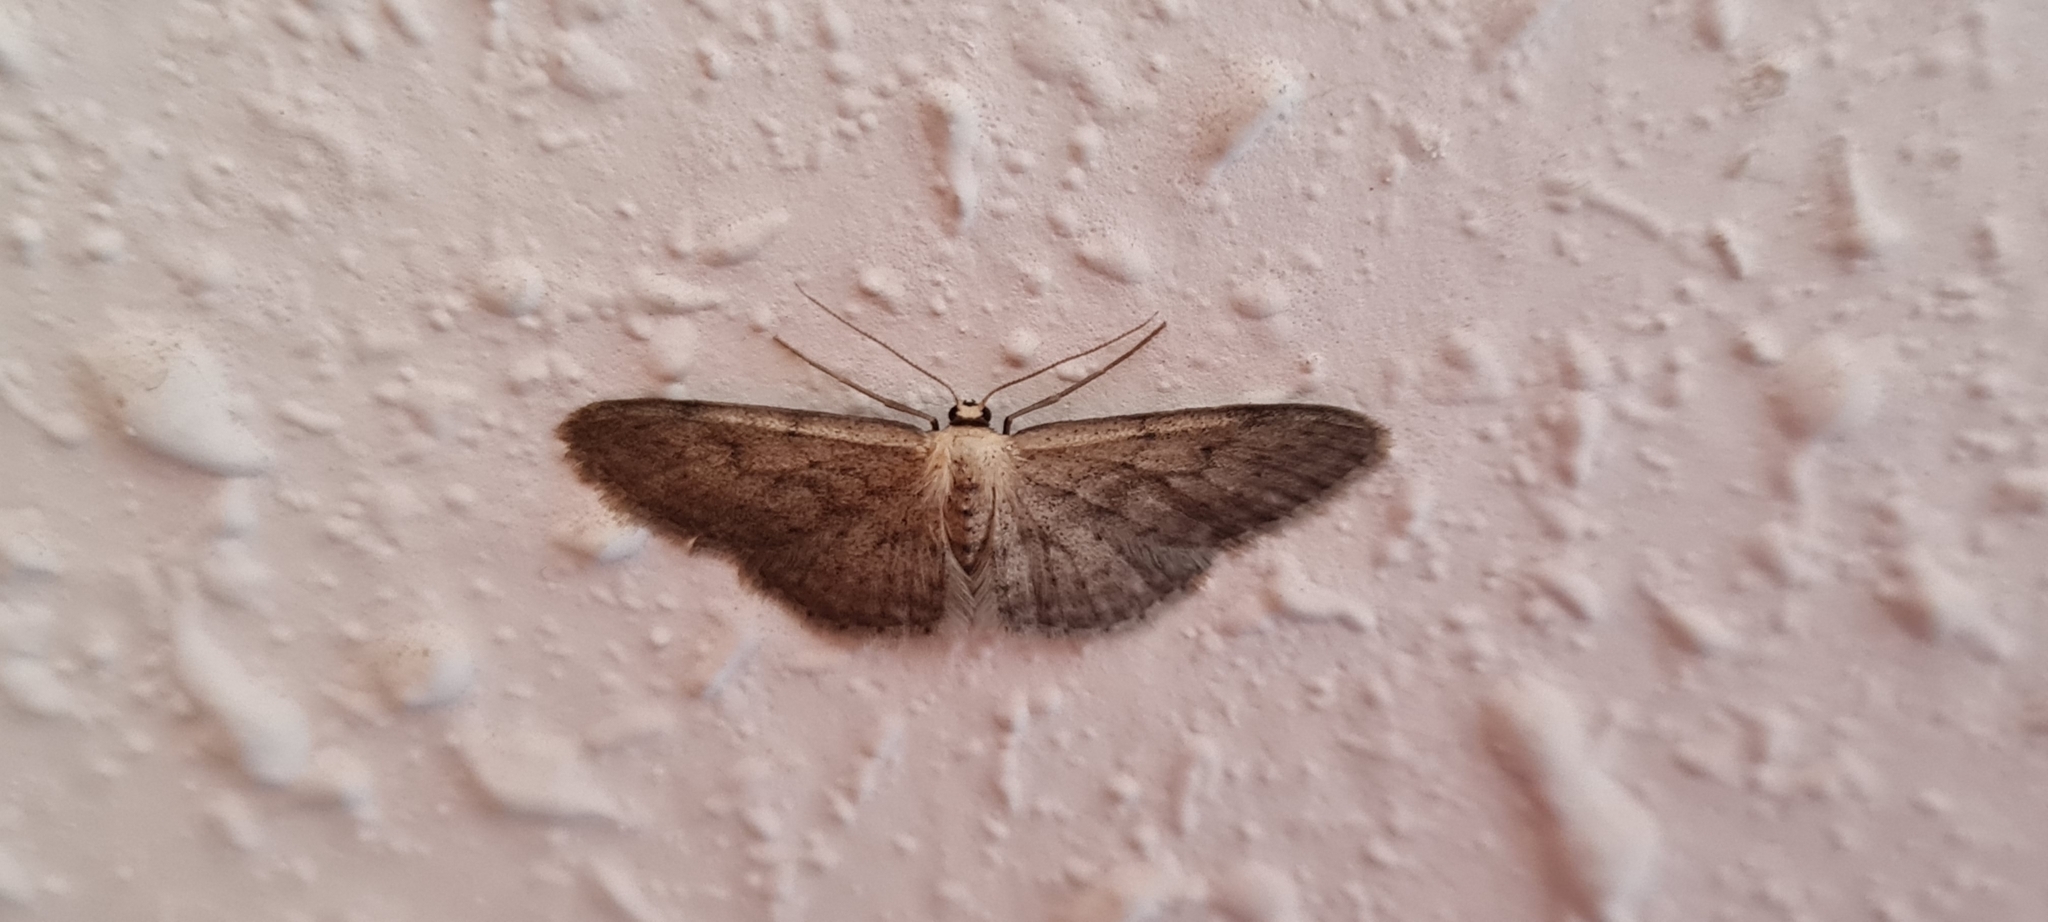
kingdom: Animalia
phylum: Arthropoda
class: Insecta
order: Lepidoptera
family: Geometridae
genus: Idaea
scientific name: Idaea seriata
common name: Small dusty wave
